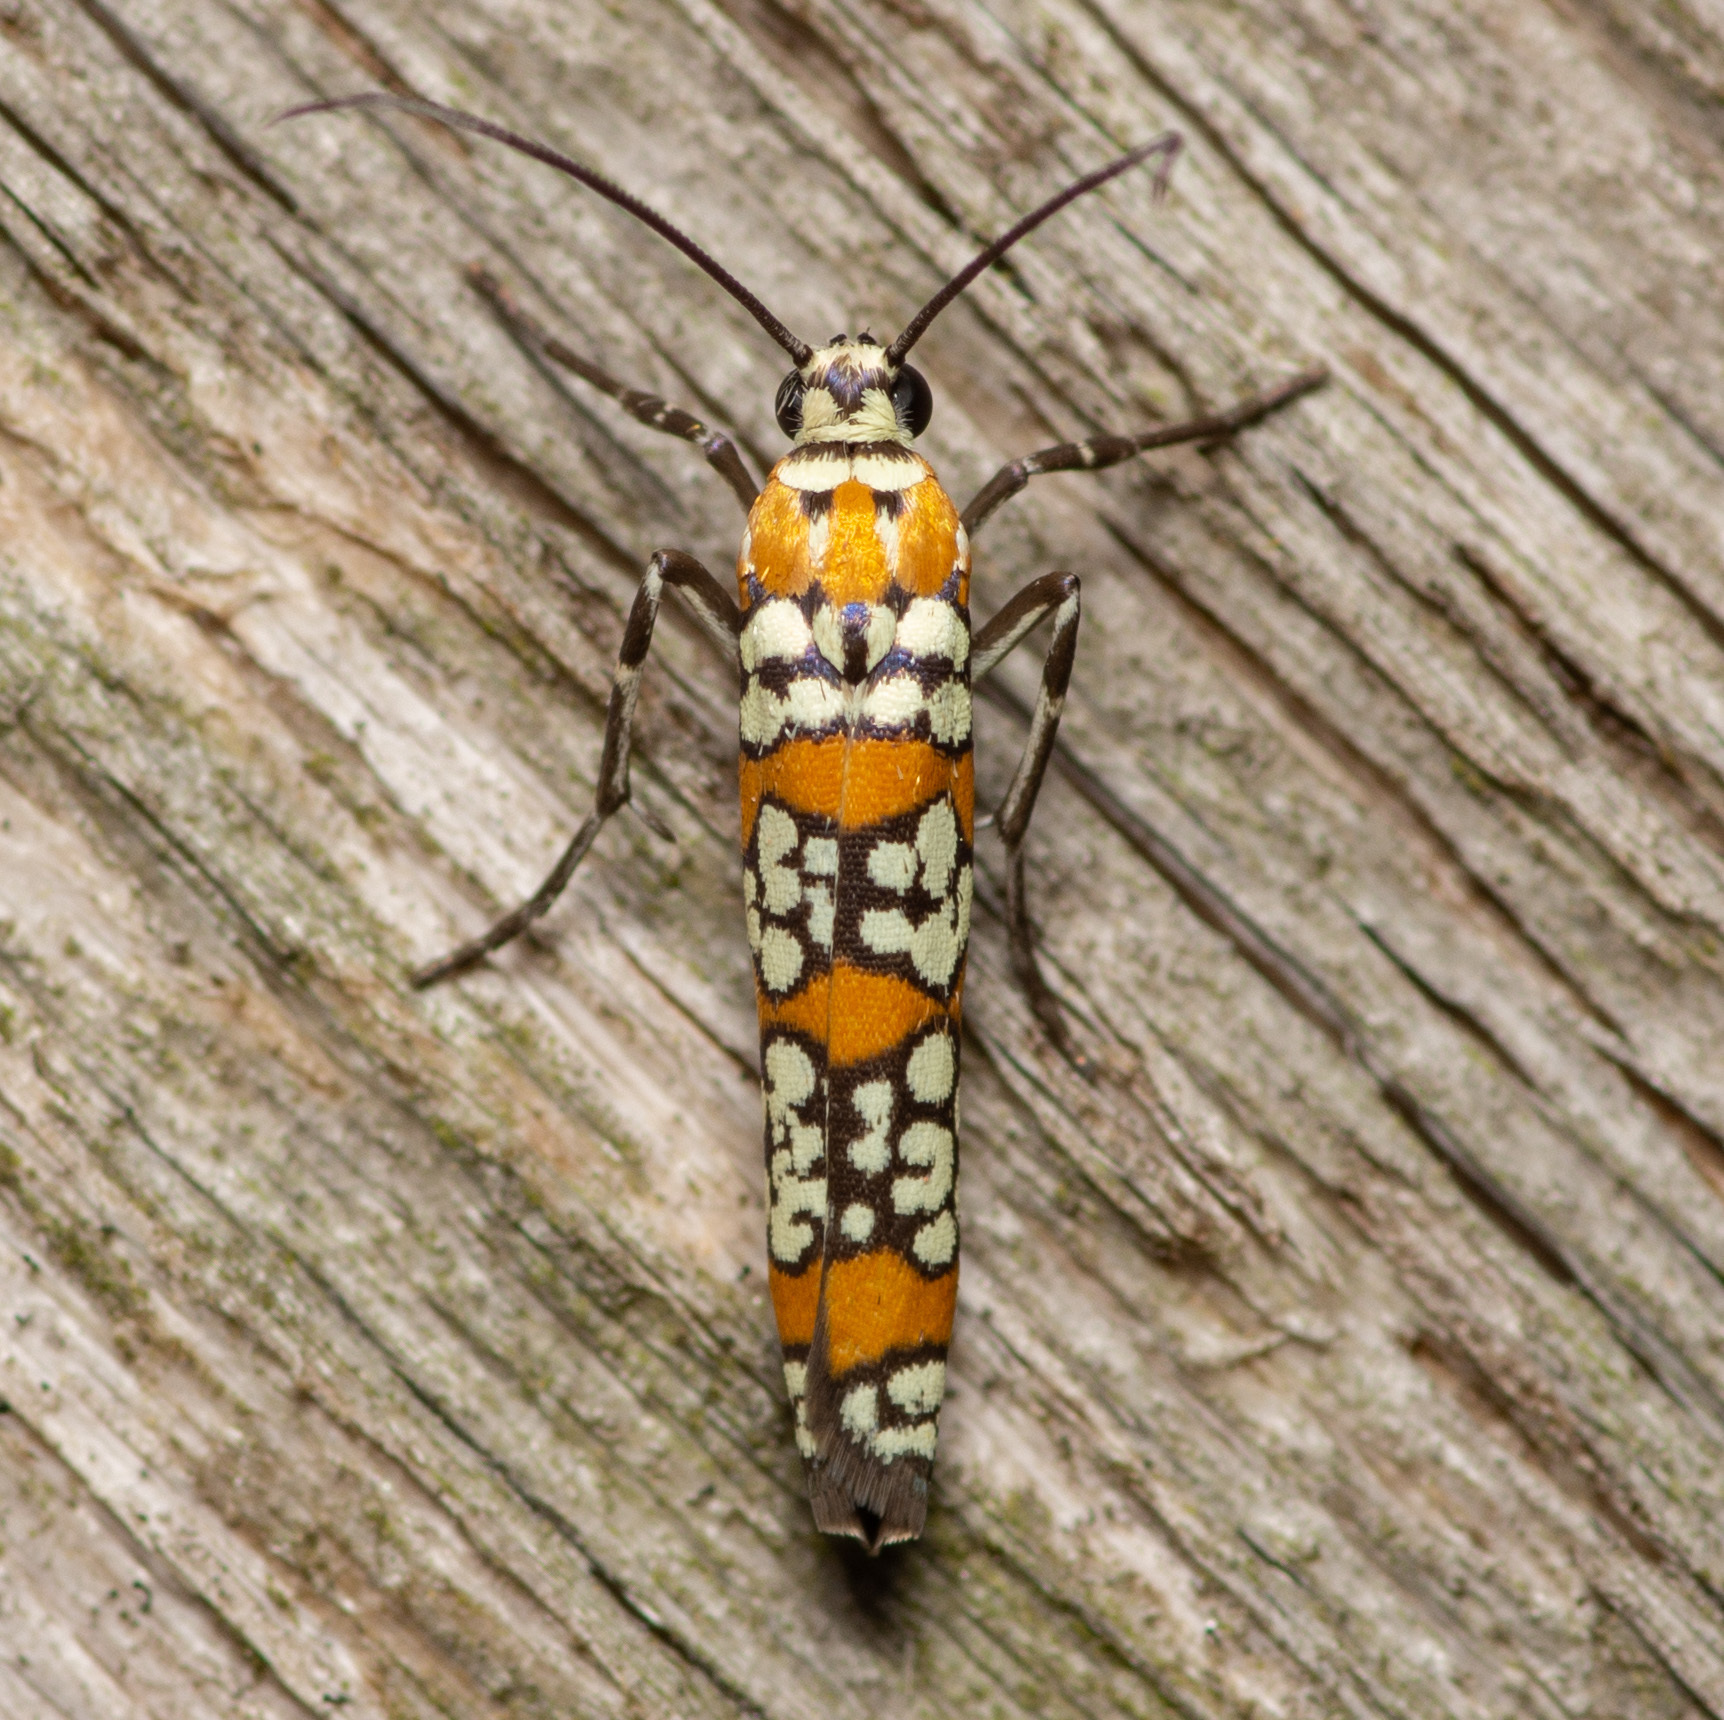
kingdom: Animalia
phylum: Arthropoda
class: Insecta
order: Lepidoptera
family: Attevidae
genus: Atteva
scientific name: Atteva punctella
